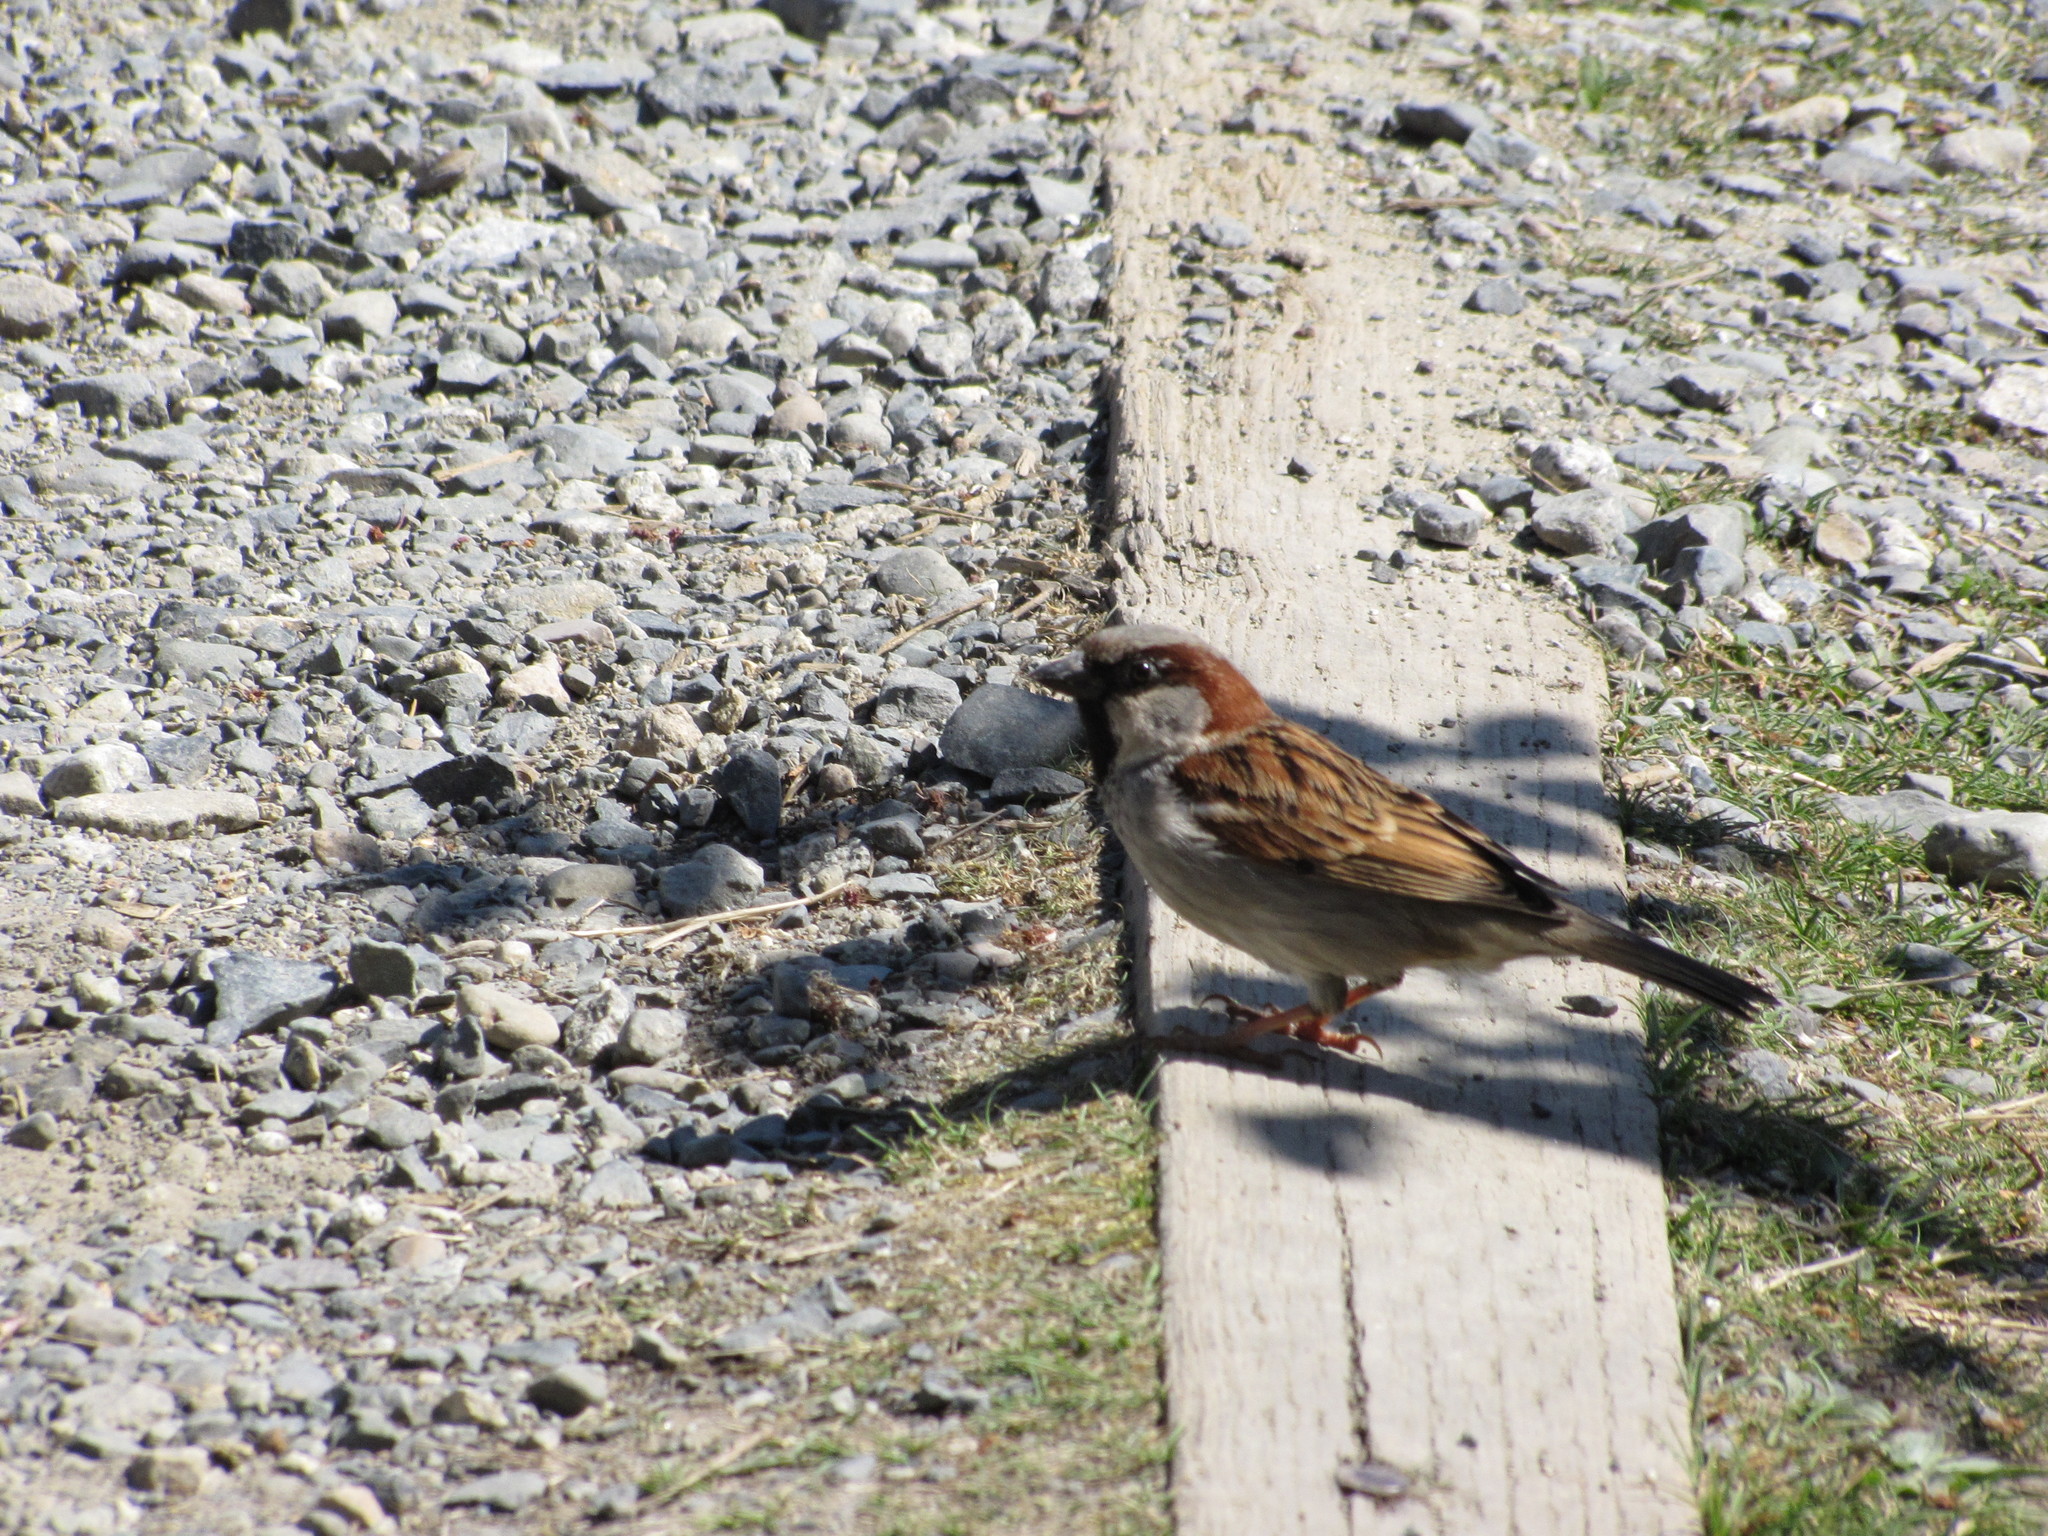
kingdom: Animalia
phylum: Chordata
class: Aves
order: Passeriformes
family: Passeridae
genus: Passer
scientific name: Passer domesticus
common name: House sparrow
